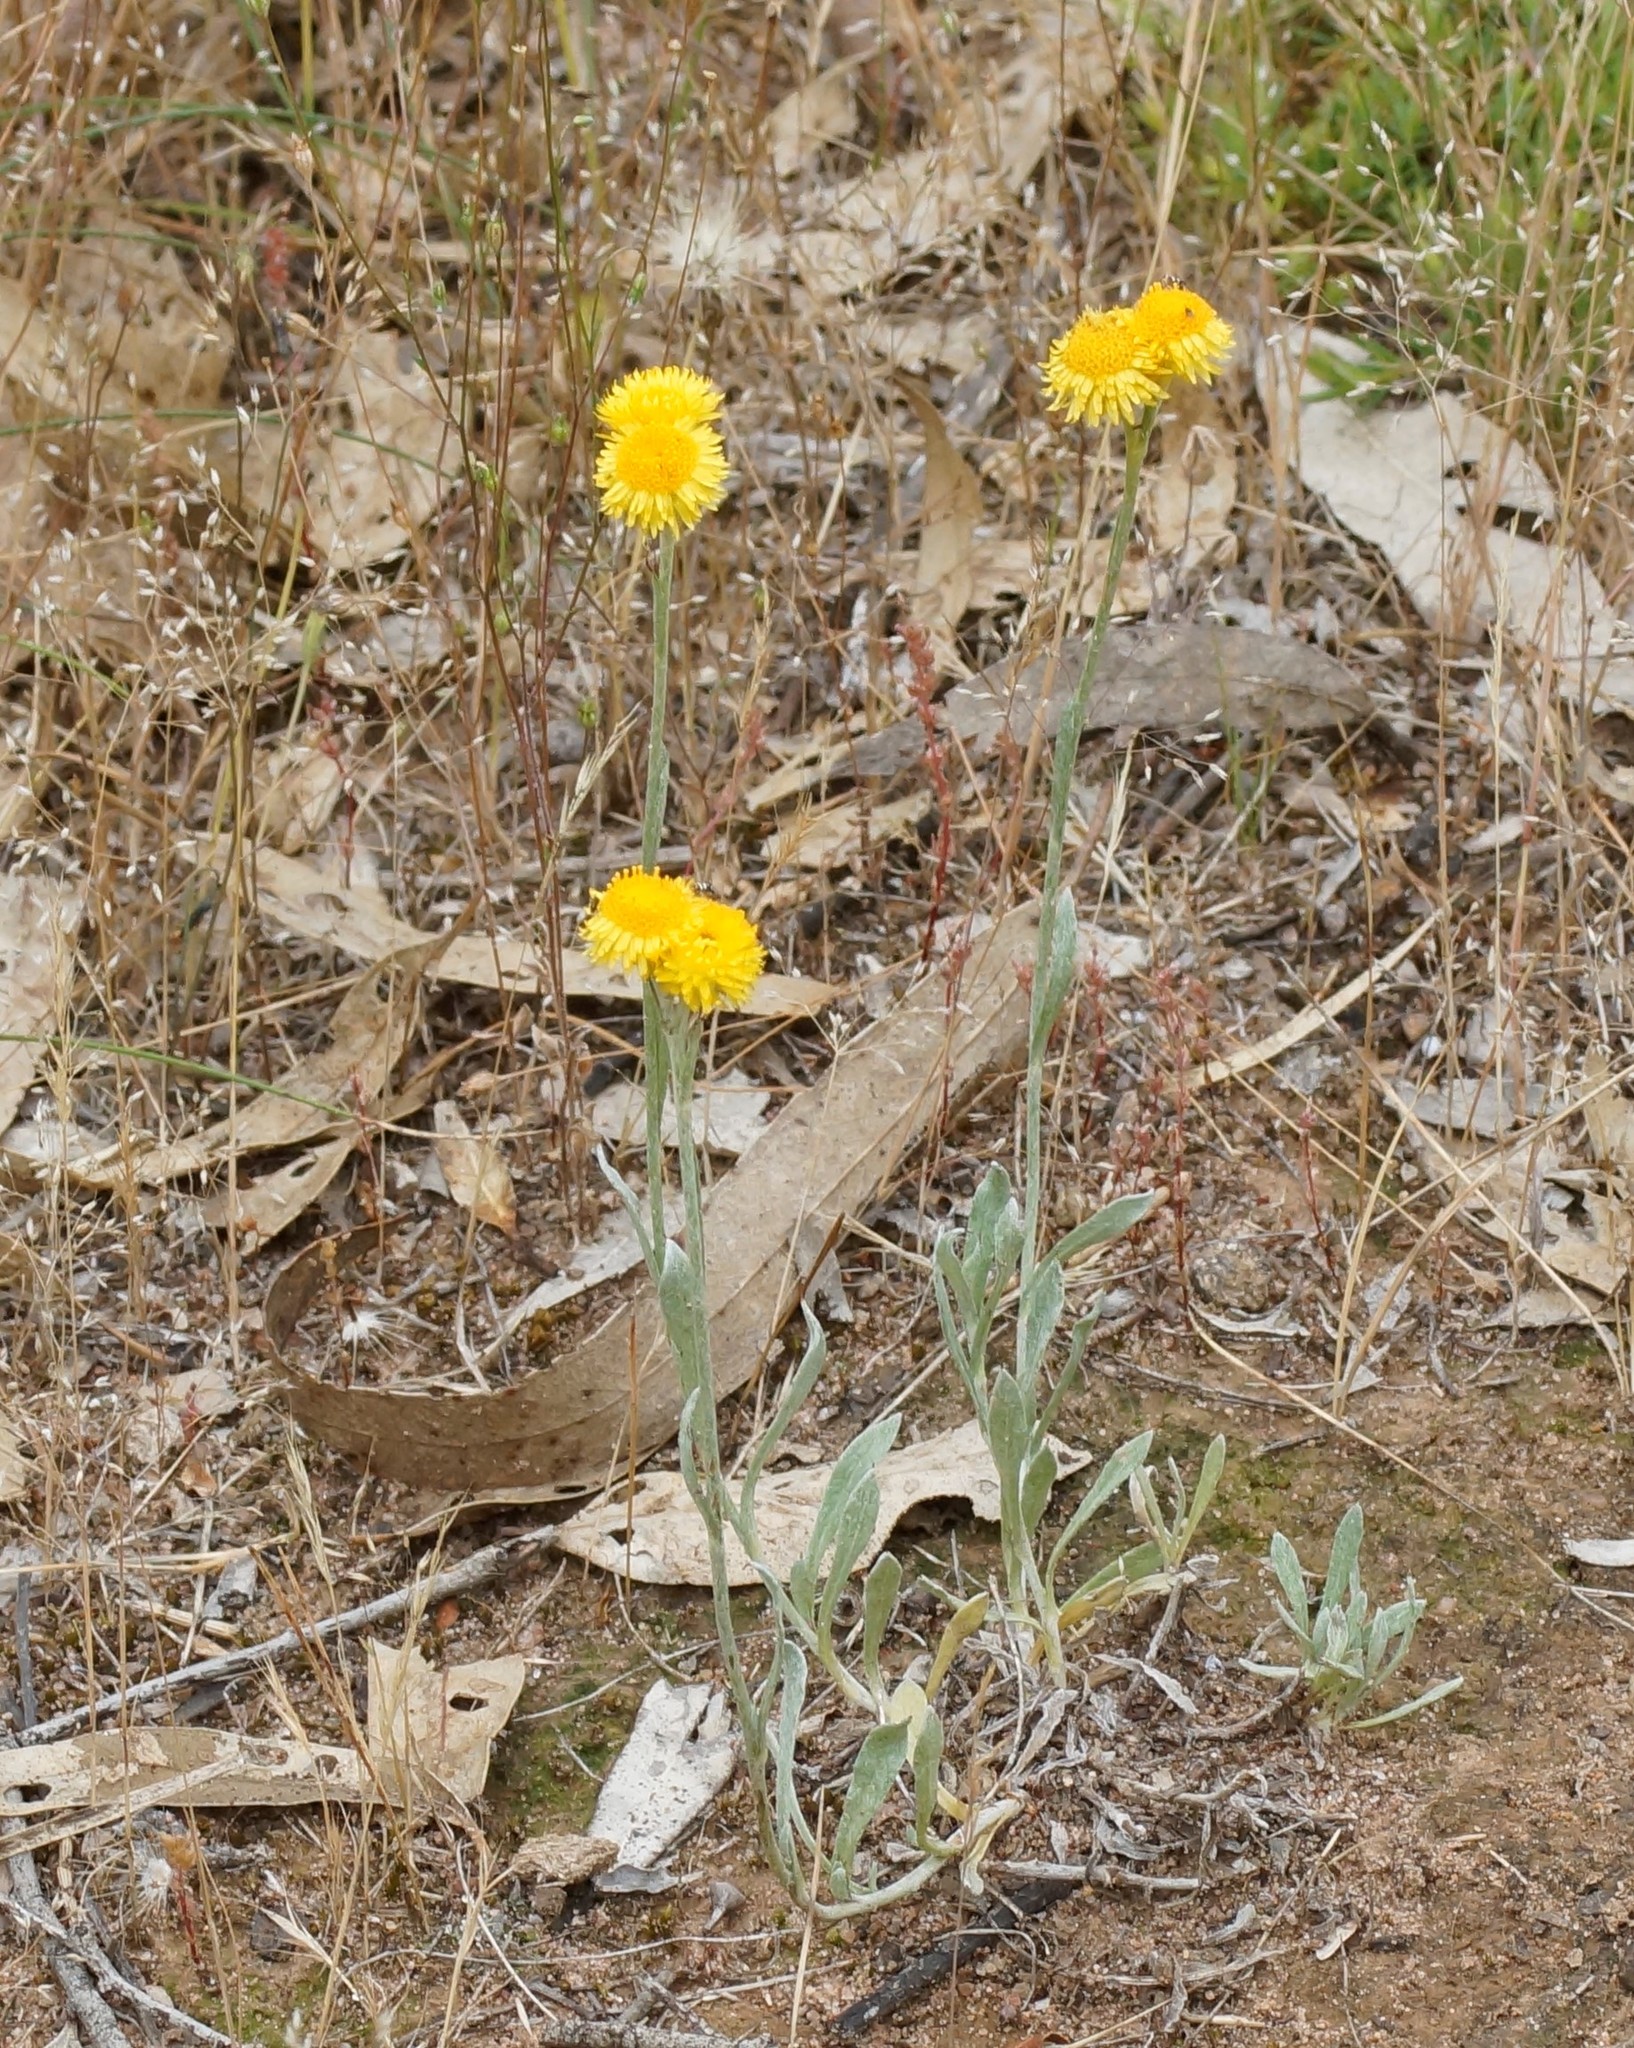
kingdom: Plantae
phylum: Tracheophyta
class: Magnoliopsida
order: Asterales
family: Asteraceae
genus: Chrysocephalum
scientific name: Chrysocephalum apiculatum
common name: Common everlasting
